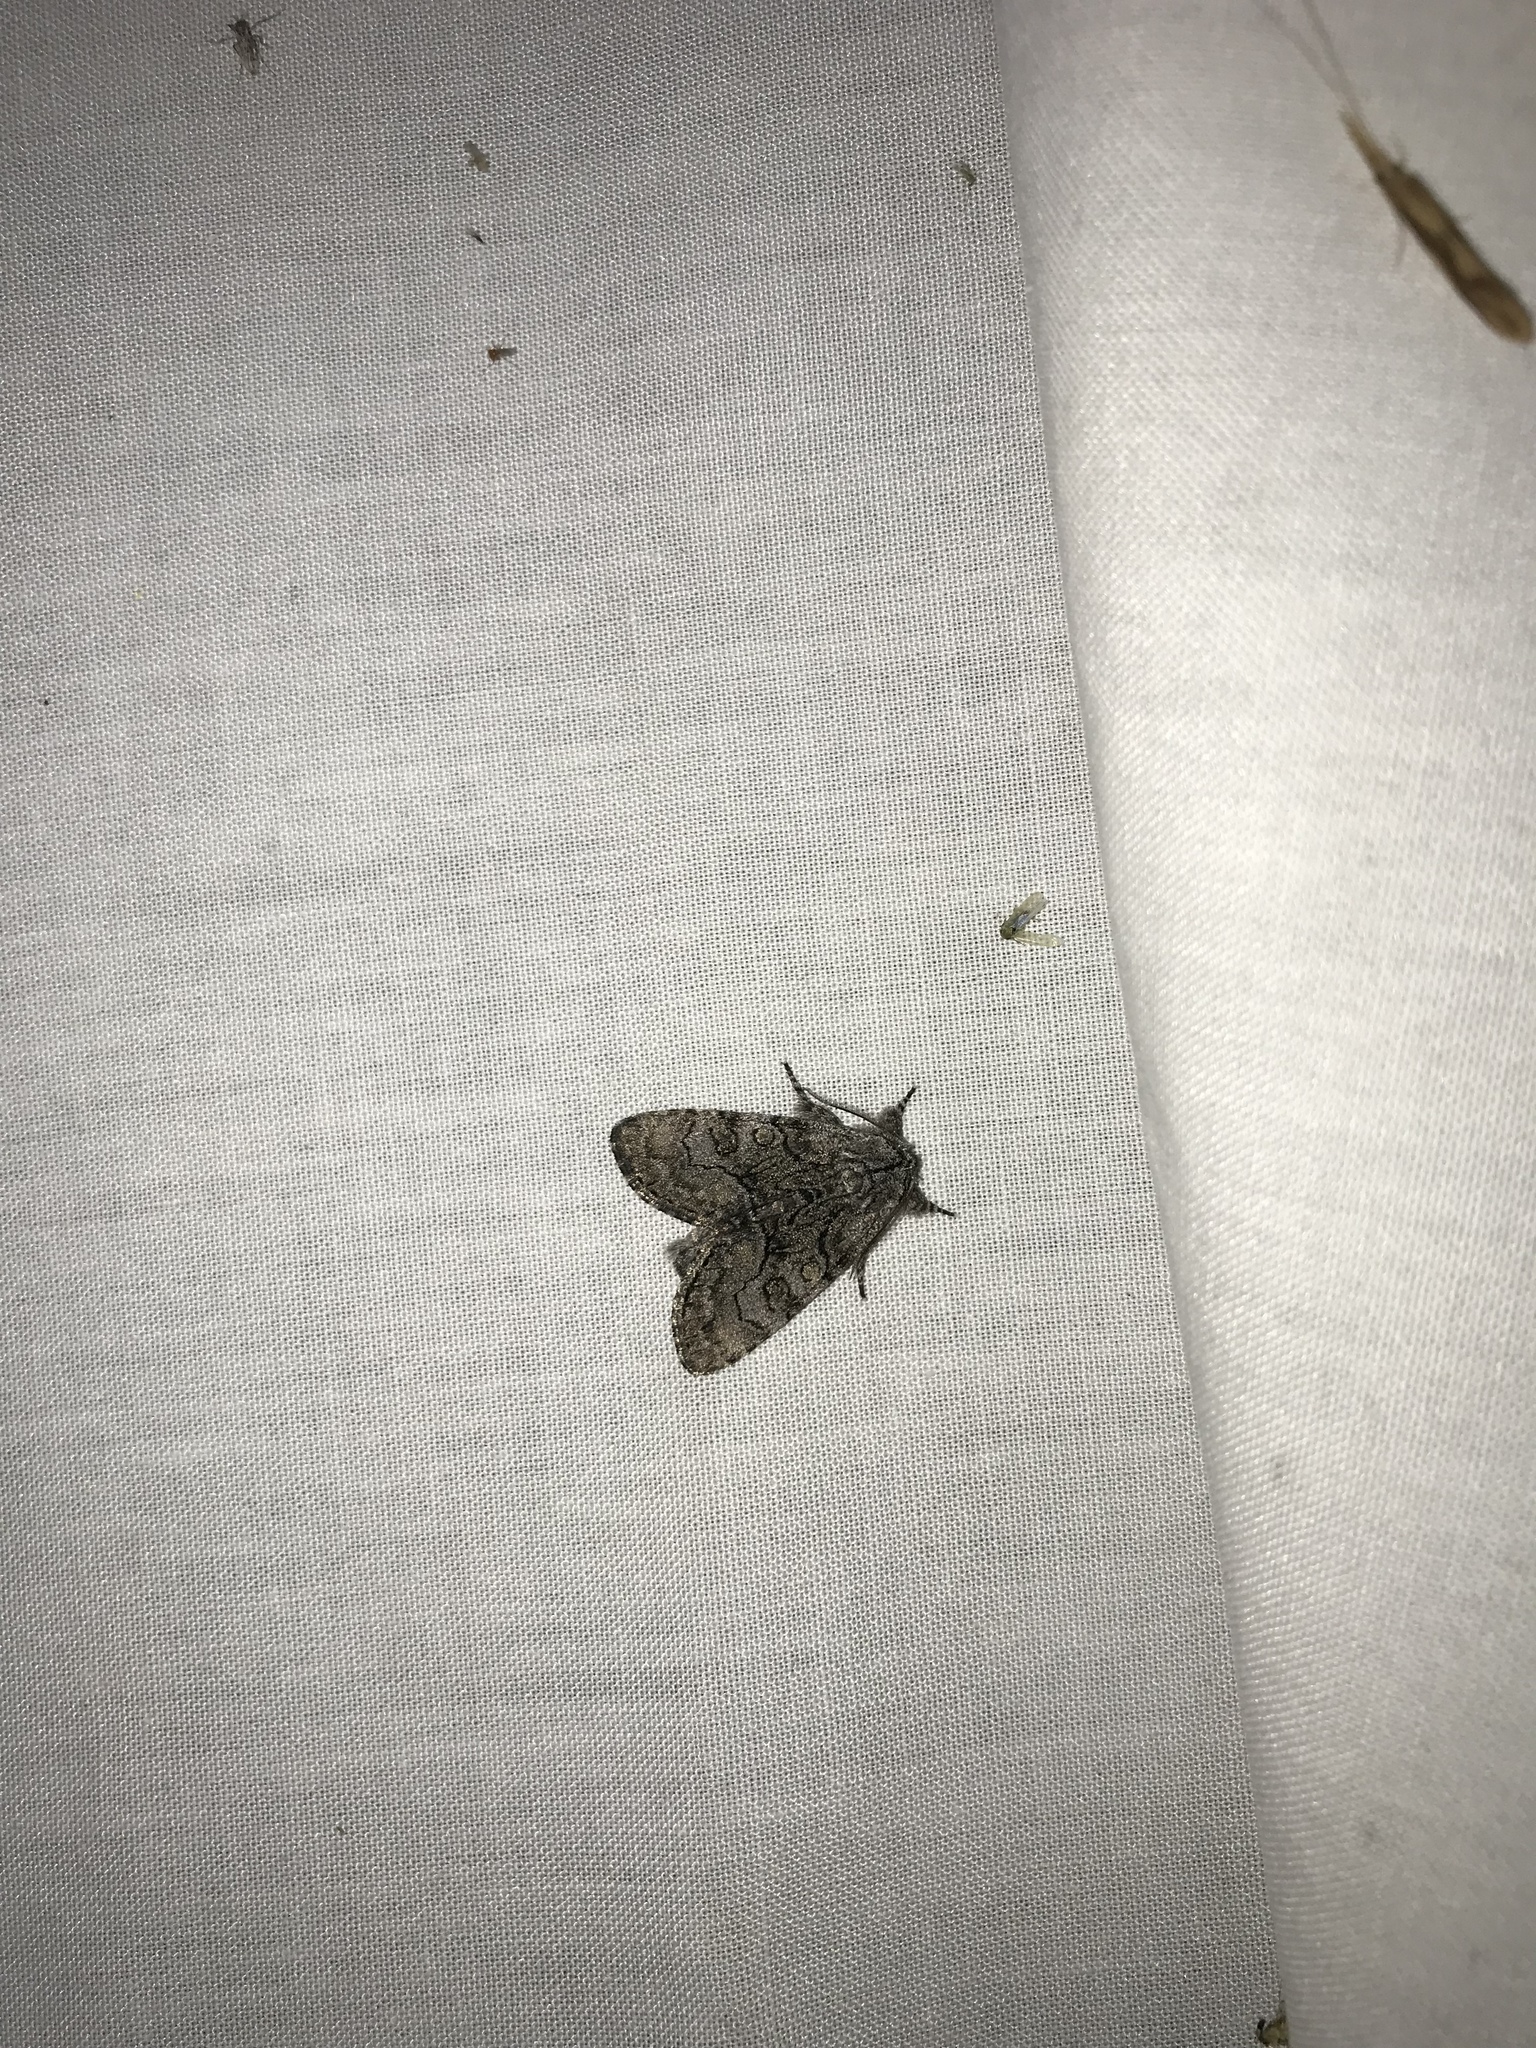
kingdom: Animalia
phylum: Arthropoda
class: Insecta
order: Lepidoptera
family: Noctuidae
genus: Raphia
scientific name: Raphia frater
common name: Brother
